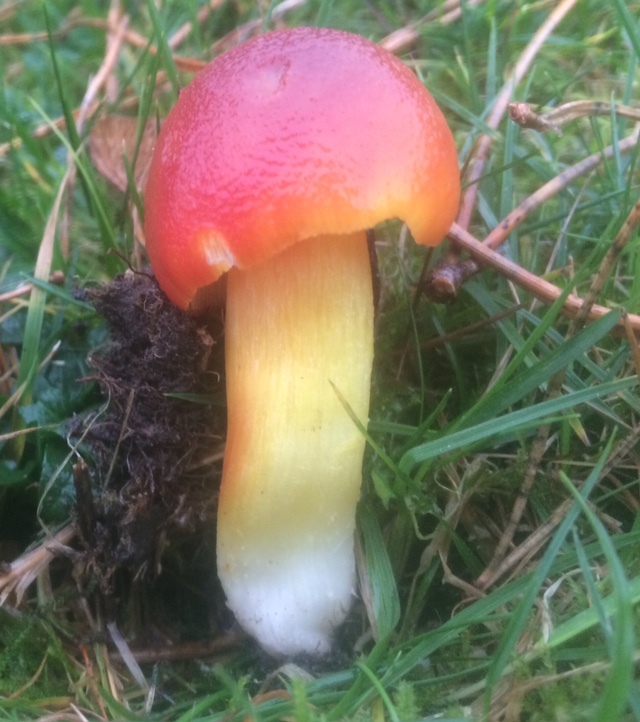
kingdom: Fungi
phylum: Basidiomycota
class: Agaricomycetes
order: Agaricales
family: Hygrophoraceae
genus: Hygrocybe
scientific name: Hygrocybe punicea
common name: Crimson waxcap
